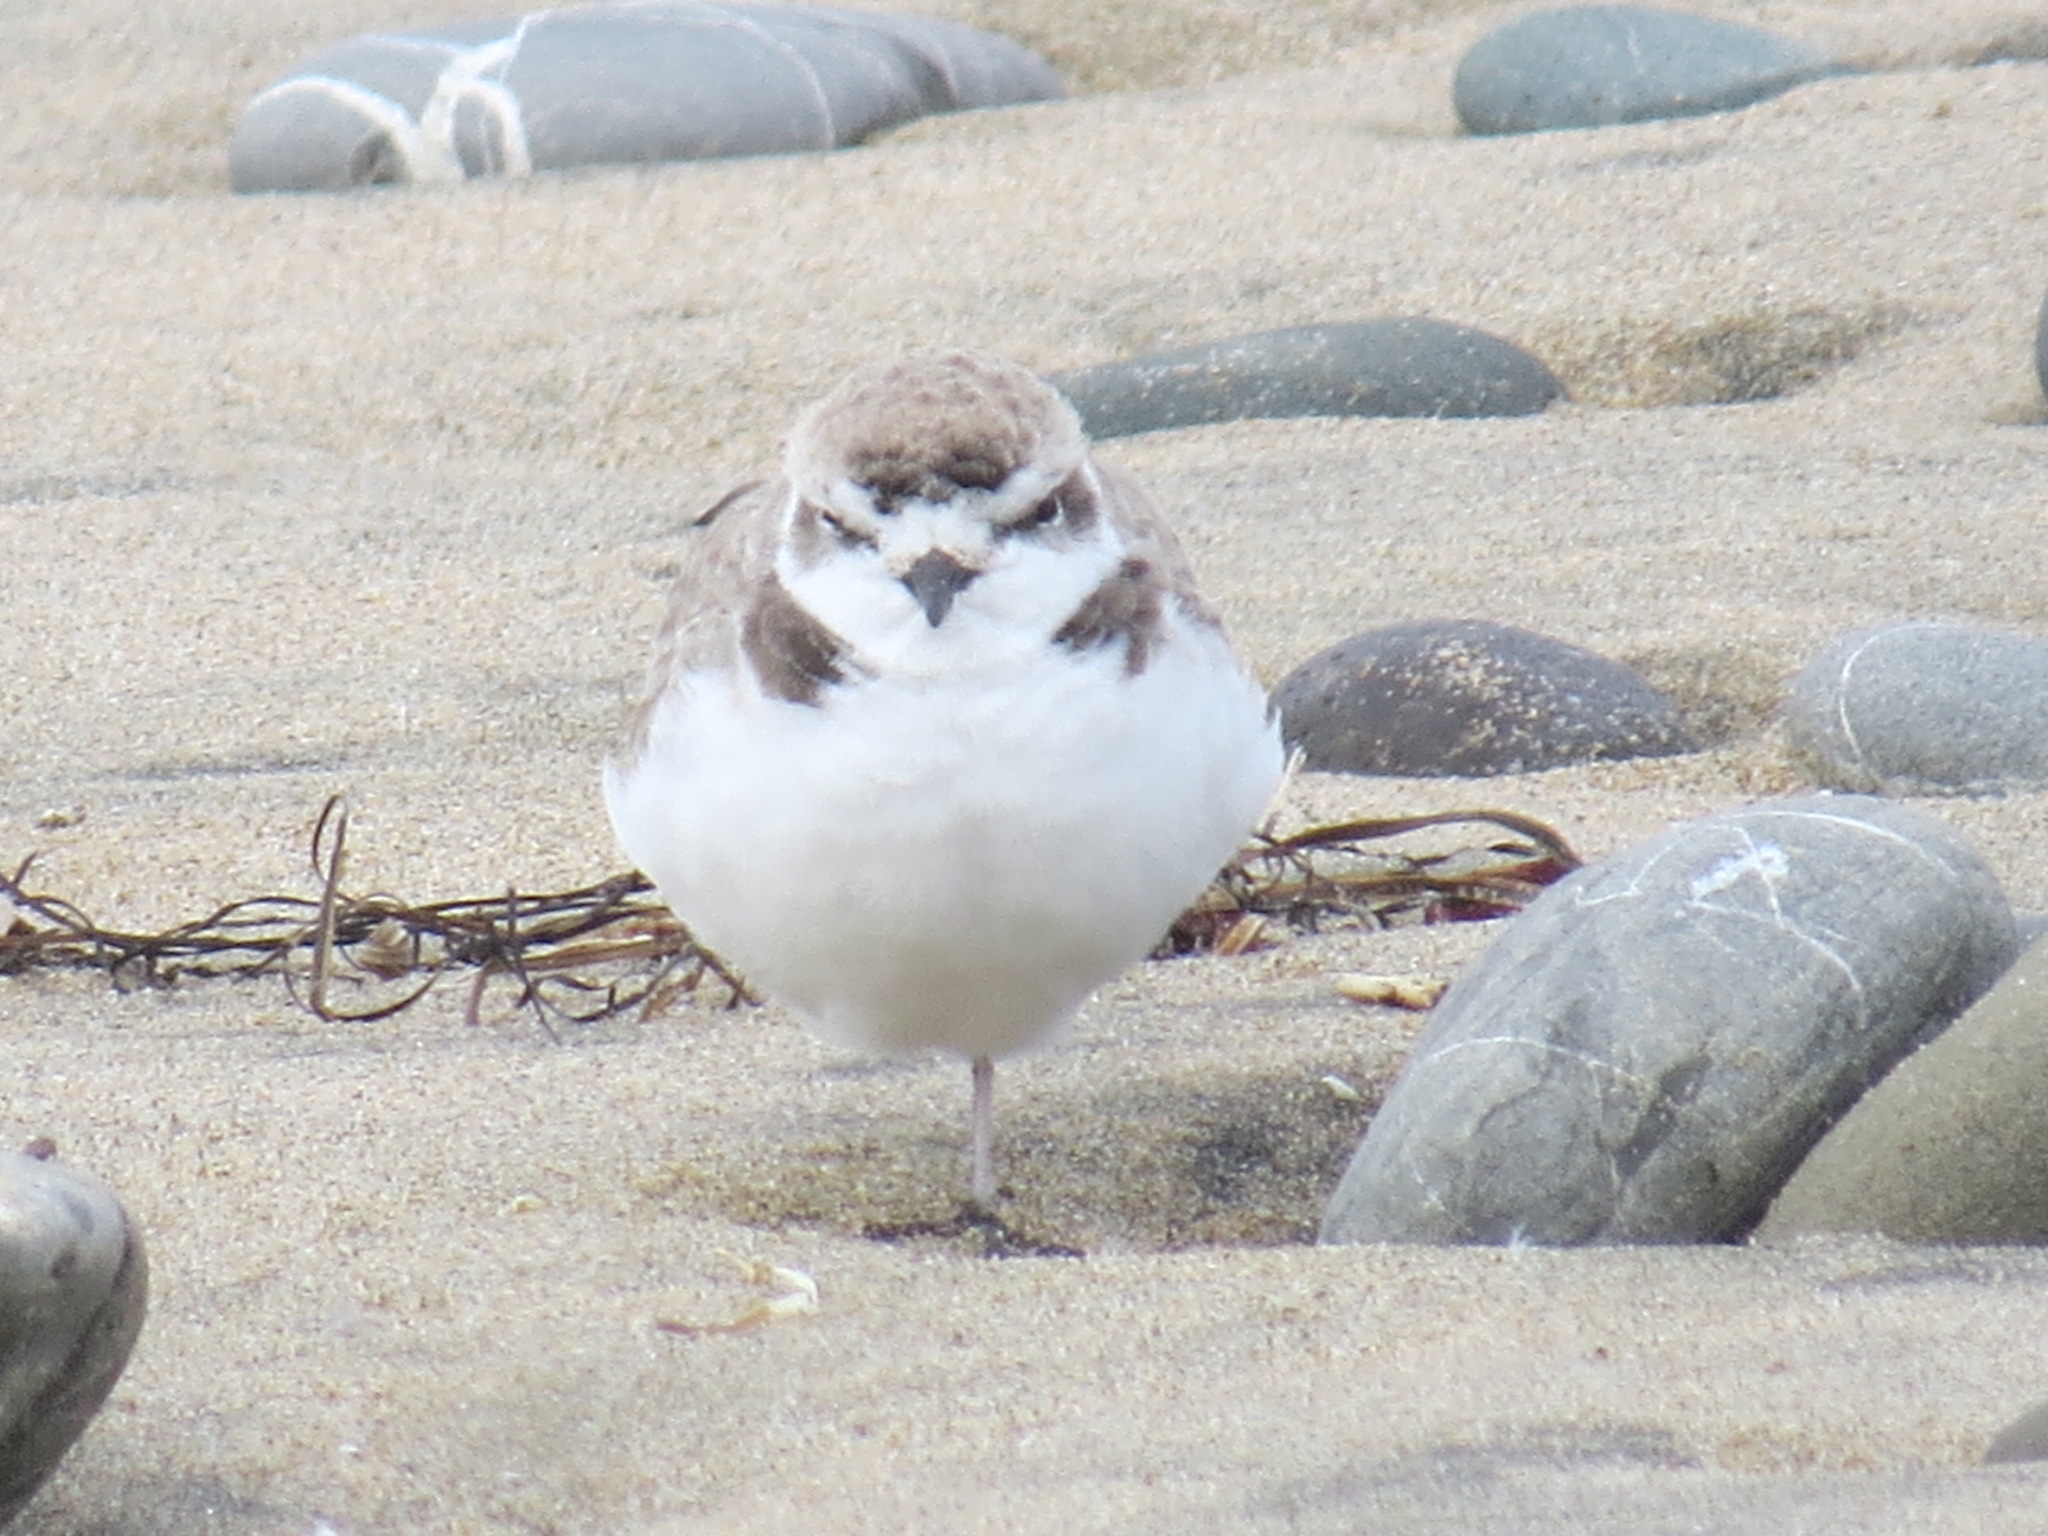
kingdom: Animalia
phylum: Chordata
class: Aves
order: Charadriiformes
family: Charadriidae
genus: Anarhynchus
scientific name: Anarhynchus
